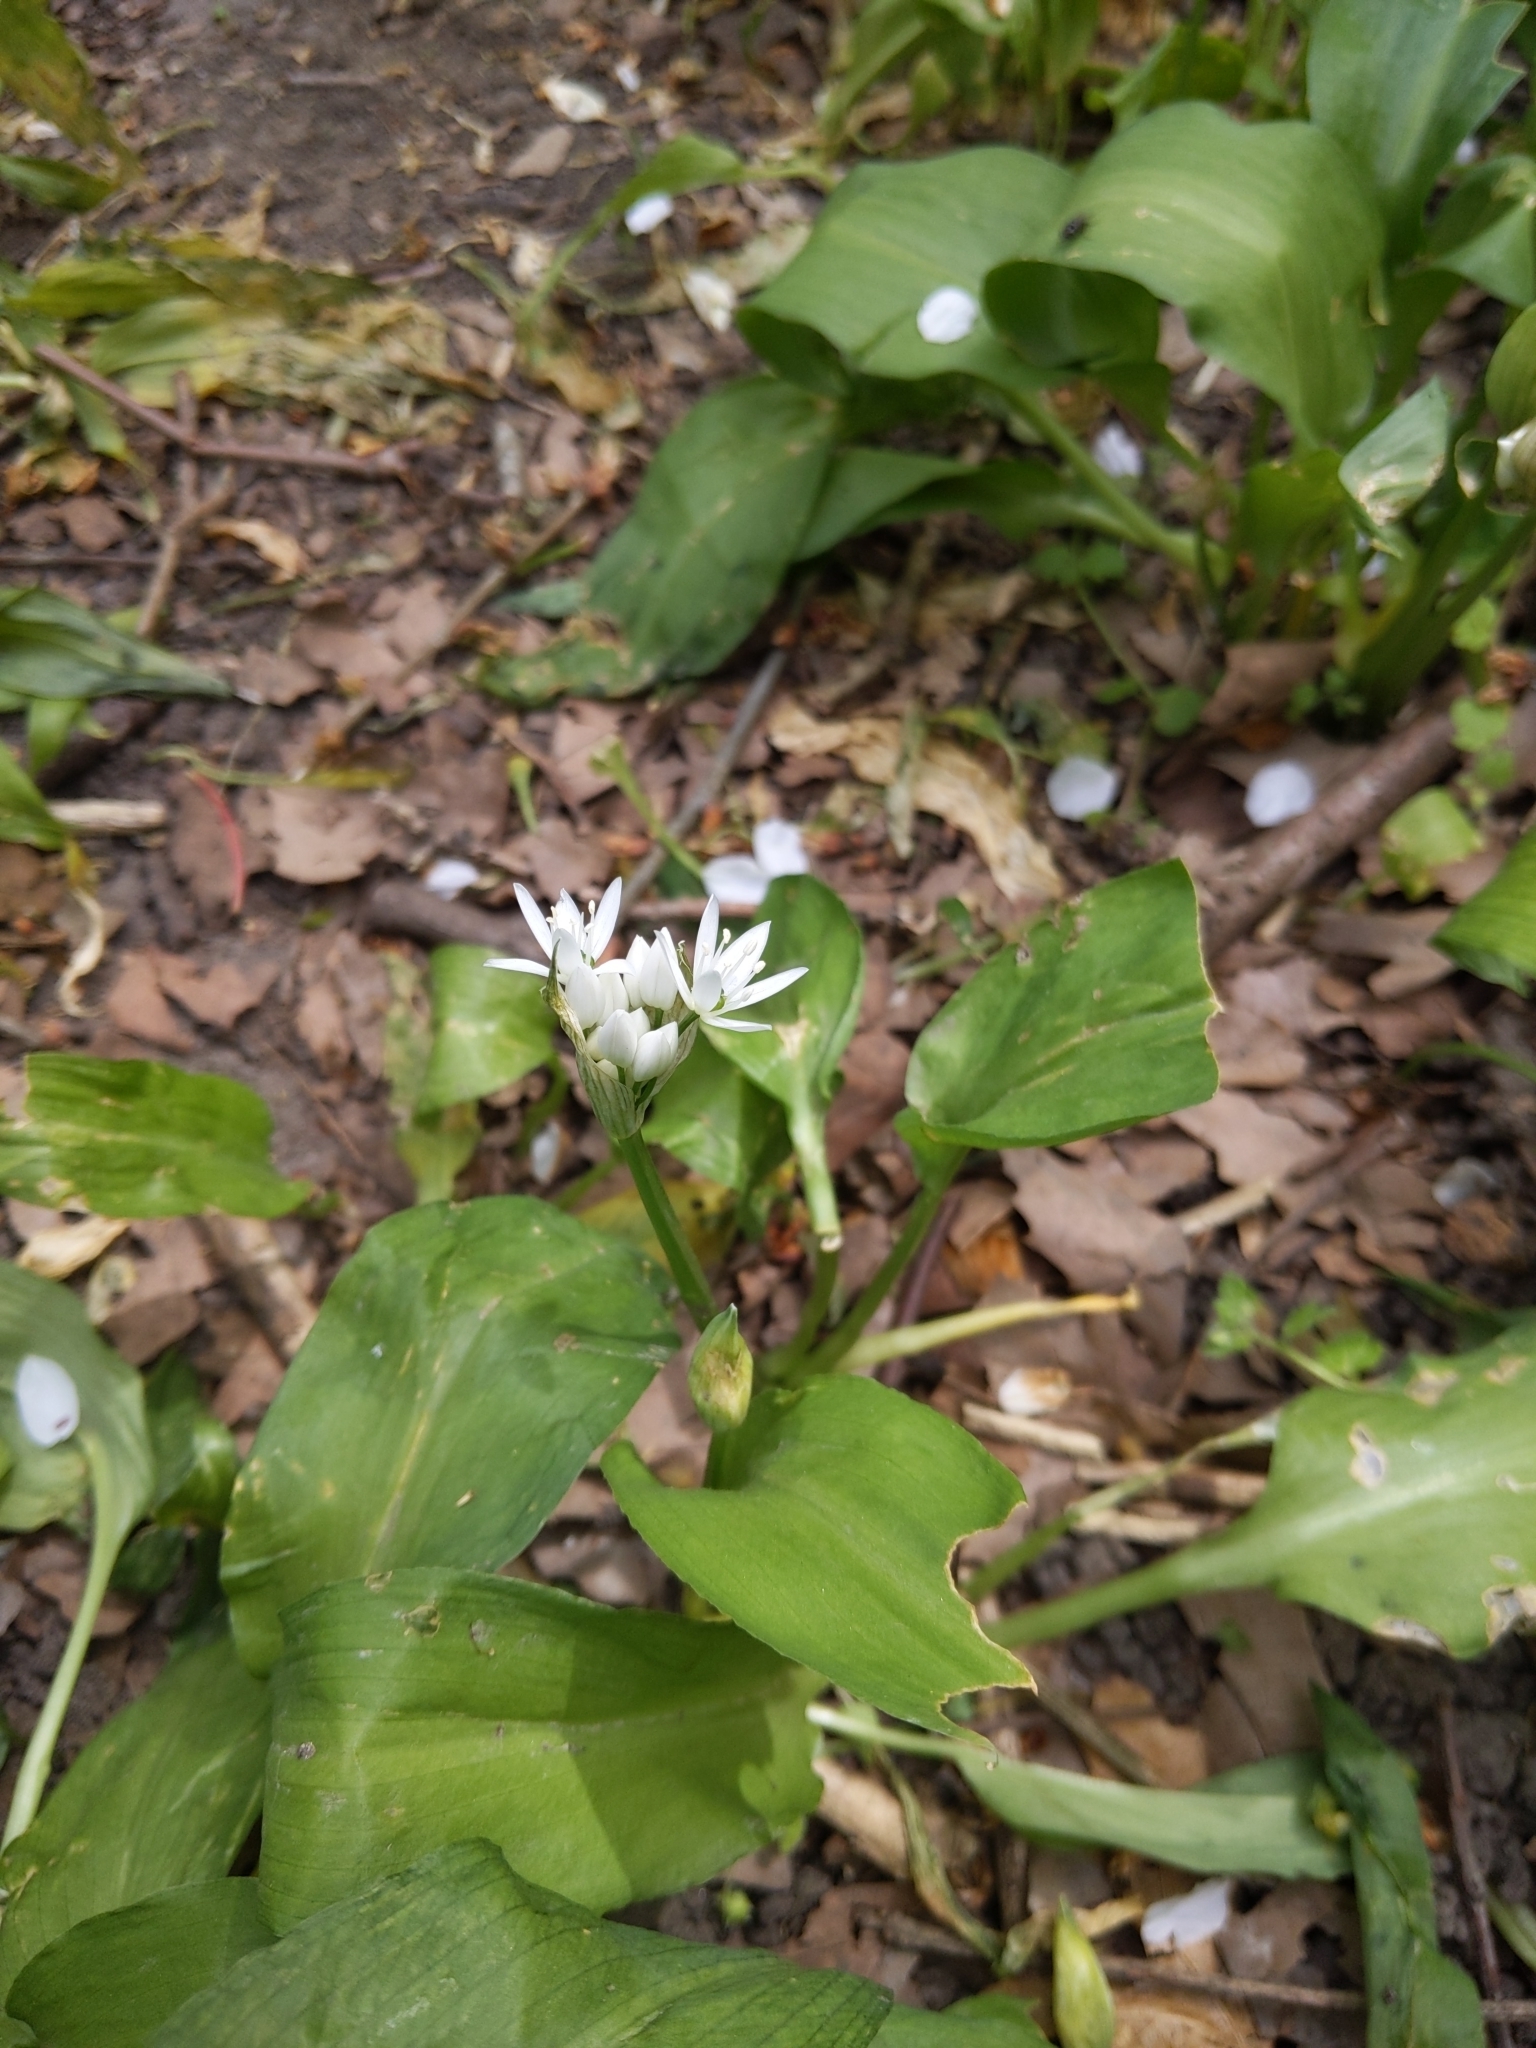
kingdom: Plantae
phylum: Tracheophyta
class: Liliopsida
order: Asparagales
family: Amaryllidaceae
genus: Allium
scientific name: Allium ursinum
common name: Ramsons
